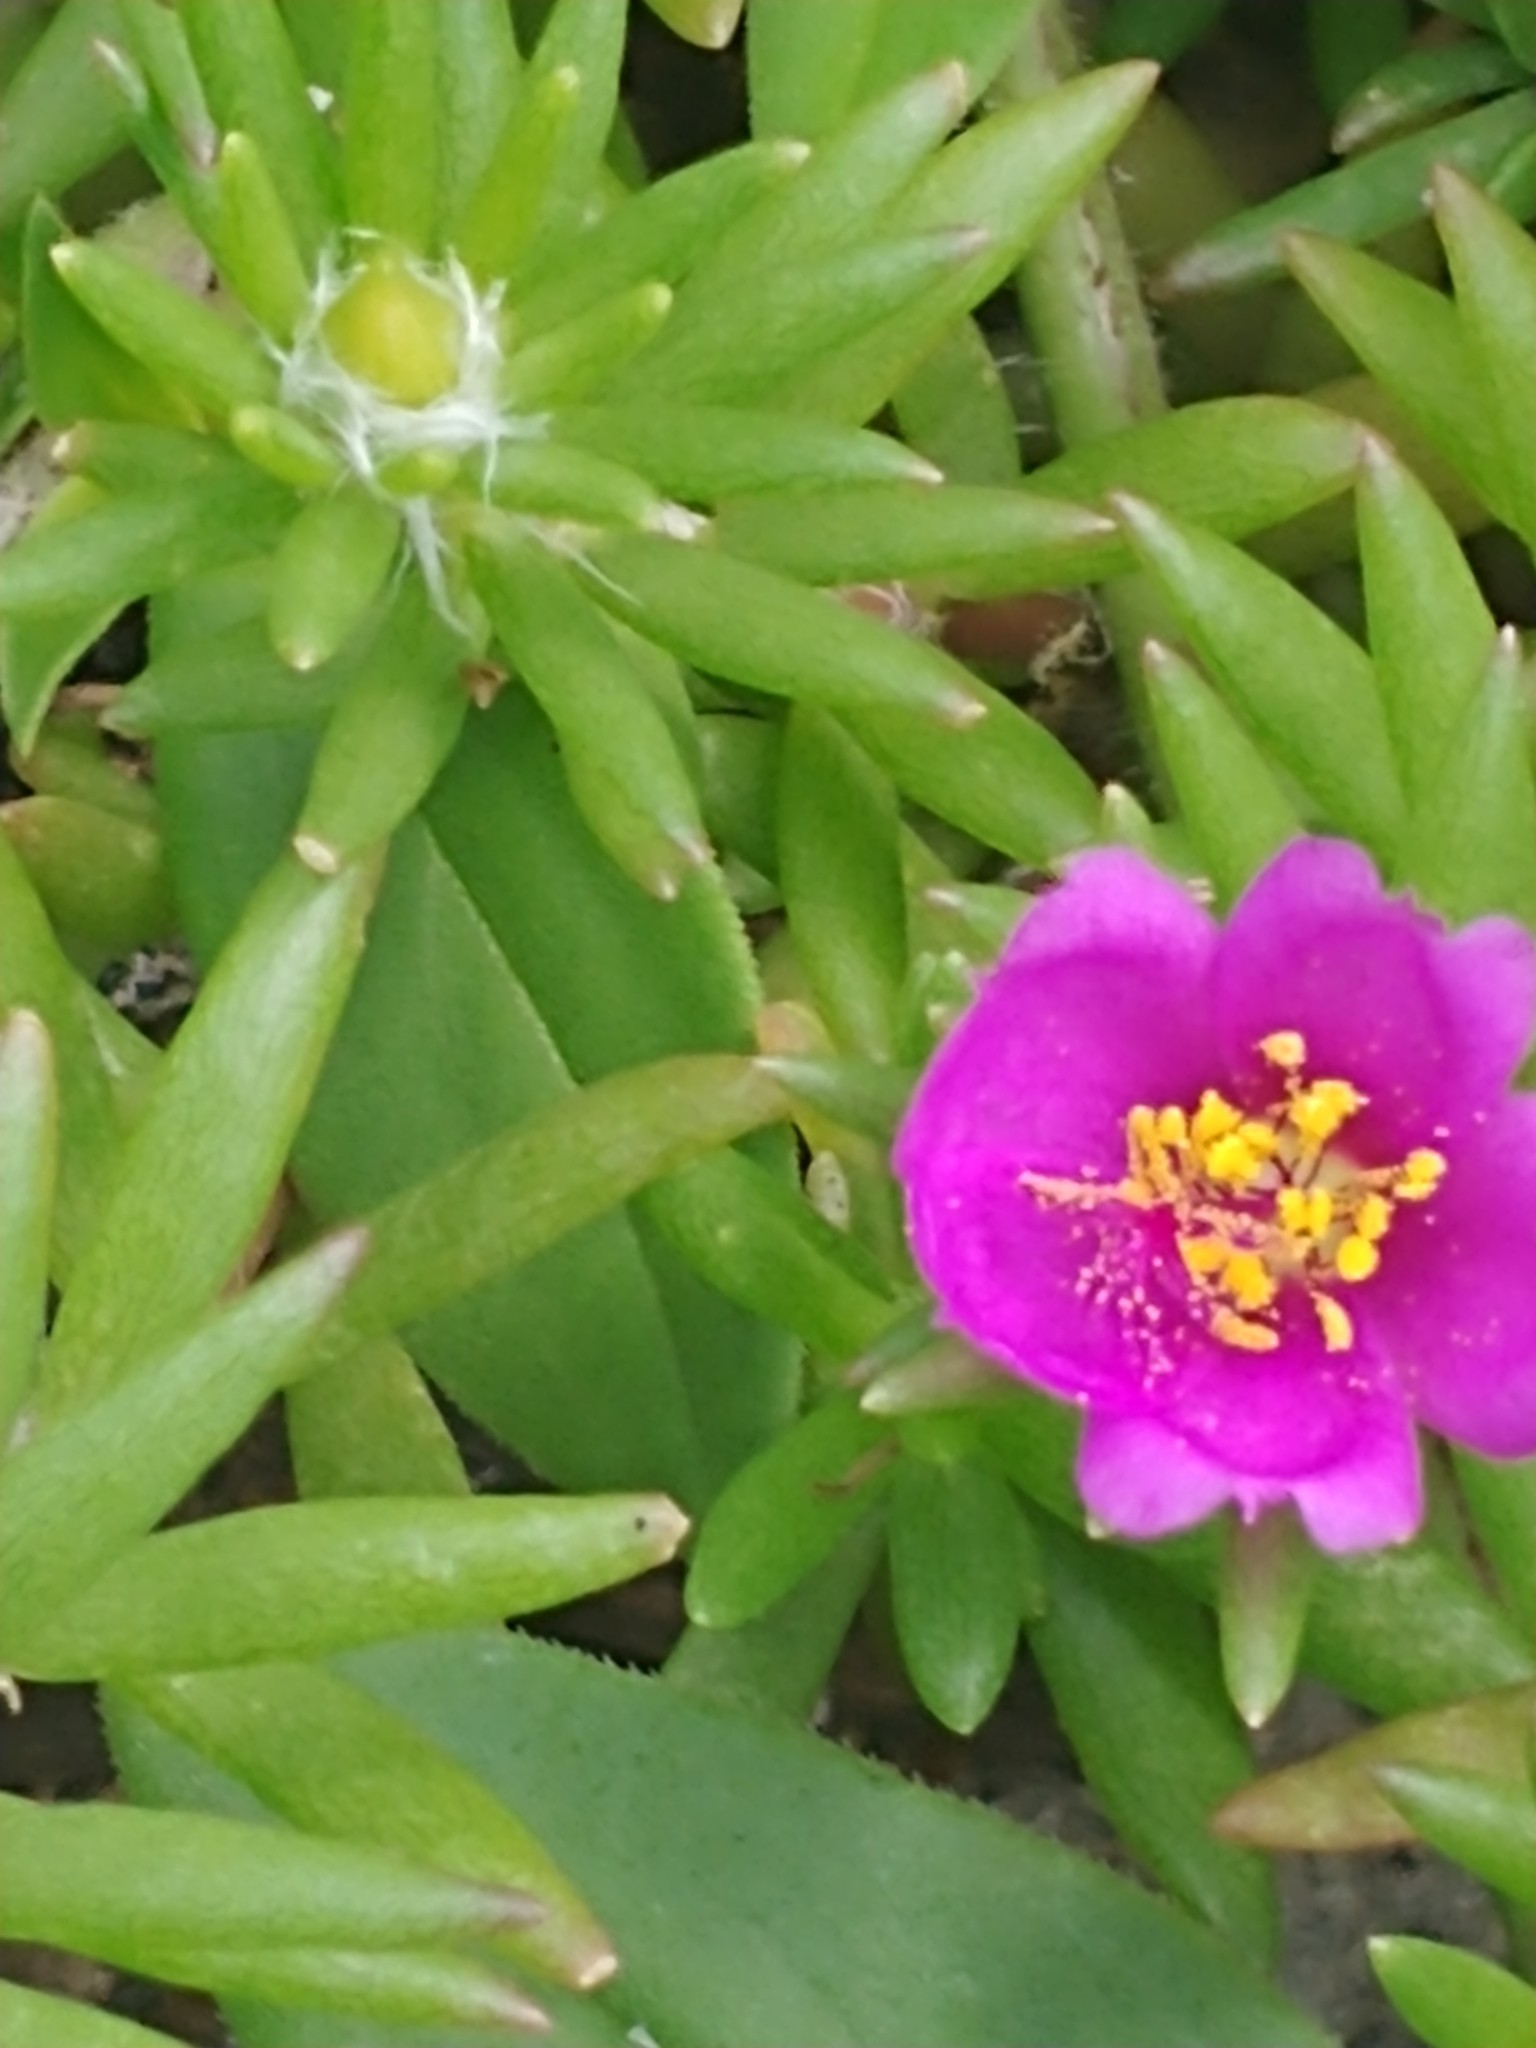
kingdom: Plantae
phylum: Tracheophyta
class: Magnoliopsida
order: Caryophyllales
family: Portulacaceae
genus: Portulaca
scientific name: Portulaca pilosa
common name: Kiss me quick
